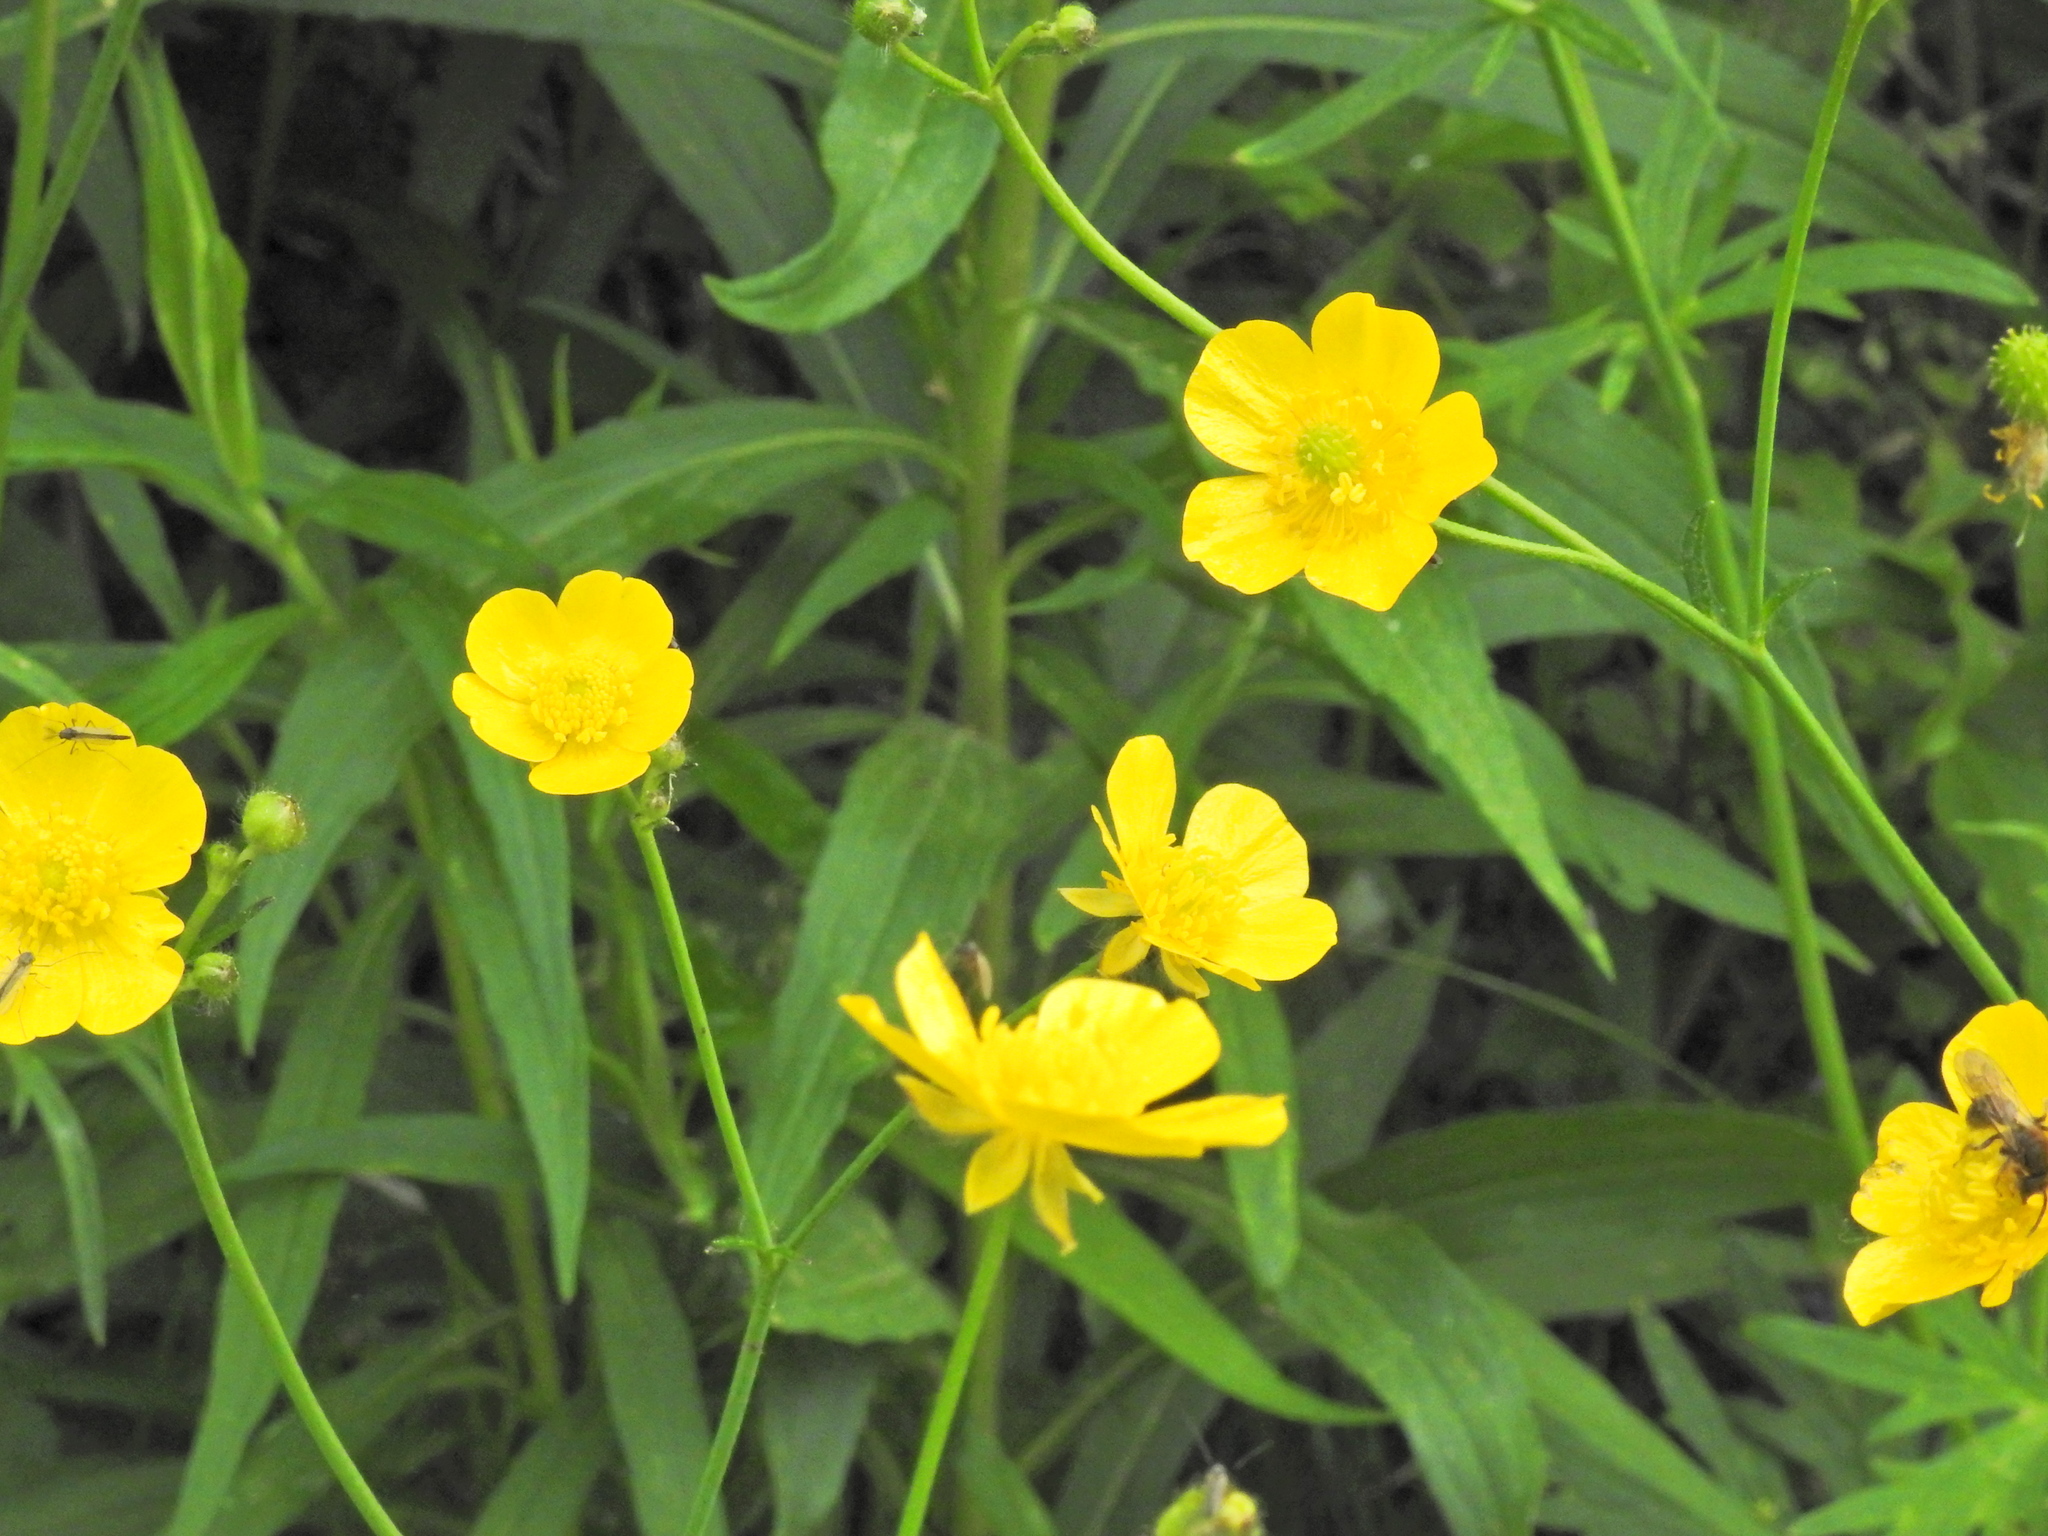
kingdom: Plantae
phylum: Tracheophyta
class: Magnoliopsida
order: Ranunculales
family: Ranunculaceae
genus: Ranunculus
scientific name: Ranunculus acris
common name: Meadow buttercup
